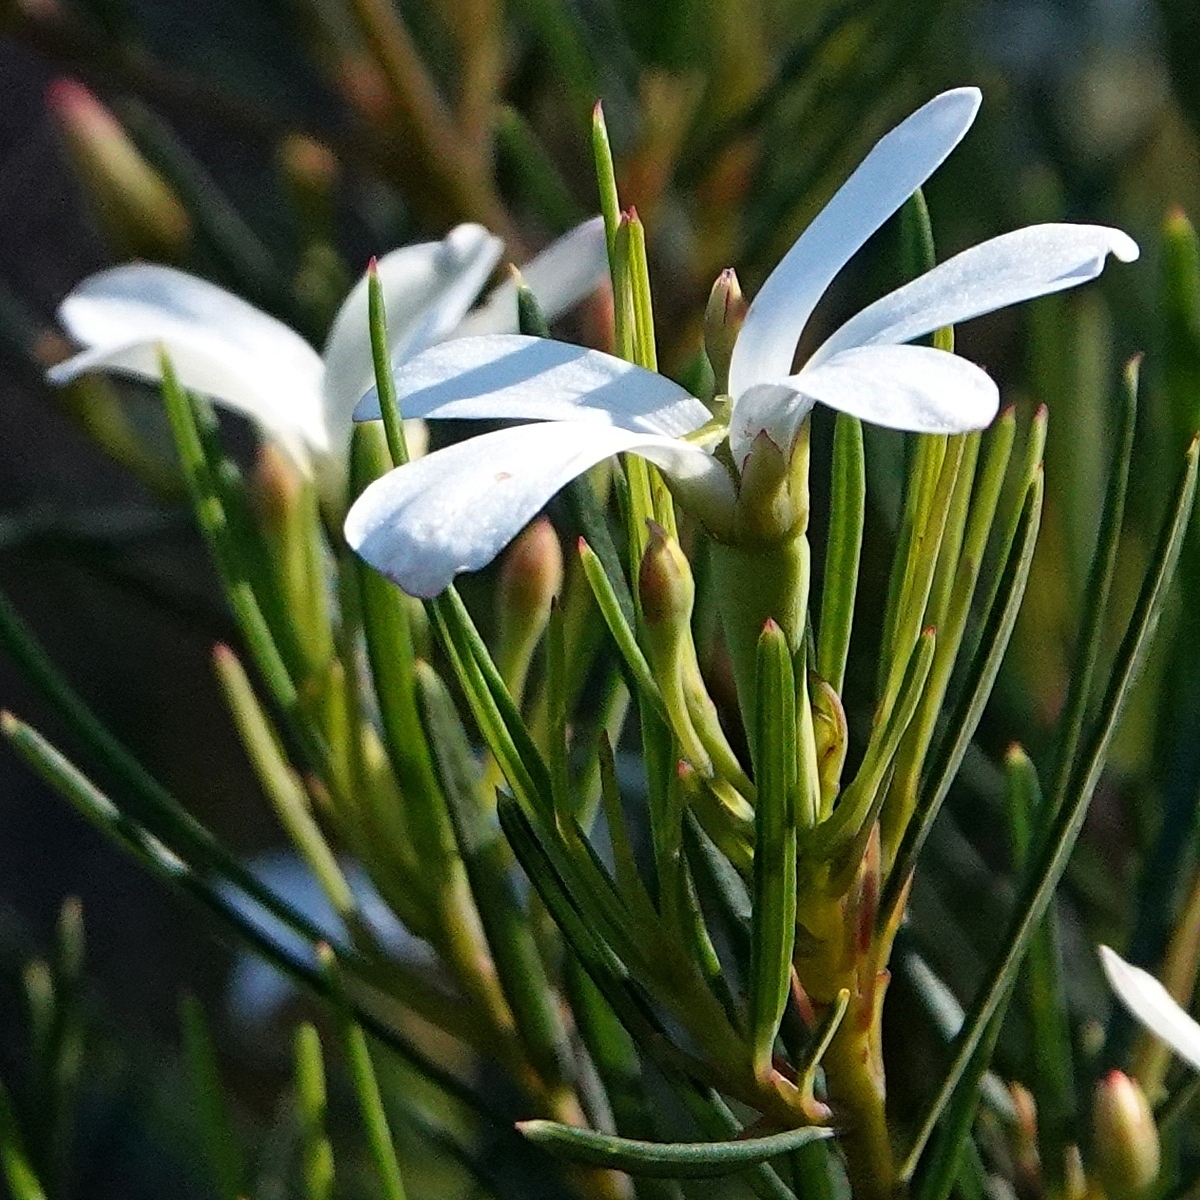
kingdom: Plantae
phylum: Tracheophyta
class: Magnoliopsida
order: Malpighiales
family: Euphorbiaceae
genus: Ricinocarpos
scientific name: Ricinocarpos pinifolius
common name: Weddingbush
